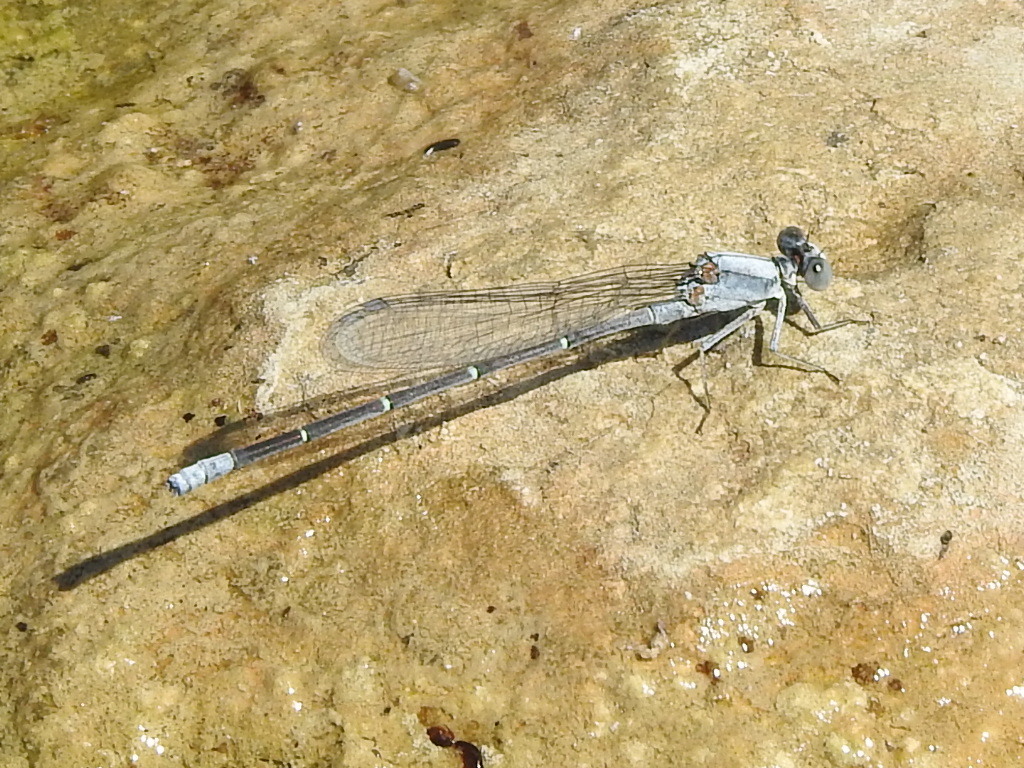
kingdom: Animalia
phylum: Arthropoda
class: Insecta
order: Odonata
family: Coenagrionidae
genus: Argia
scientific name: Argia moesta
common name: Powdered dancer
